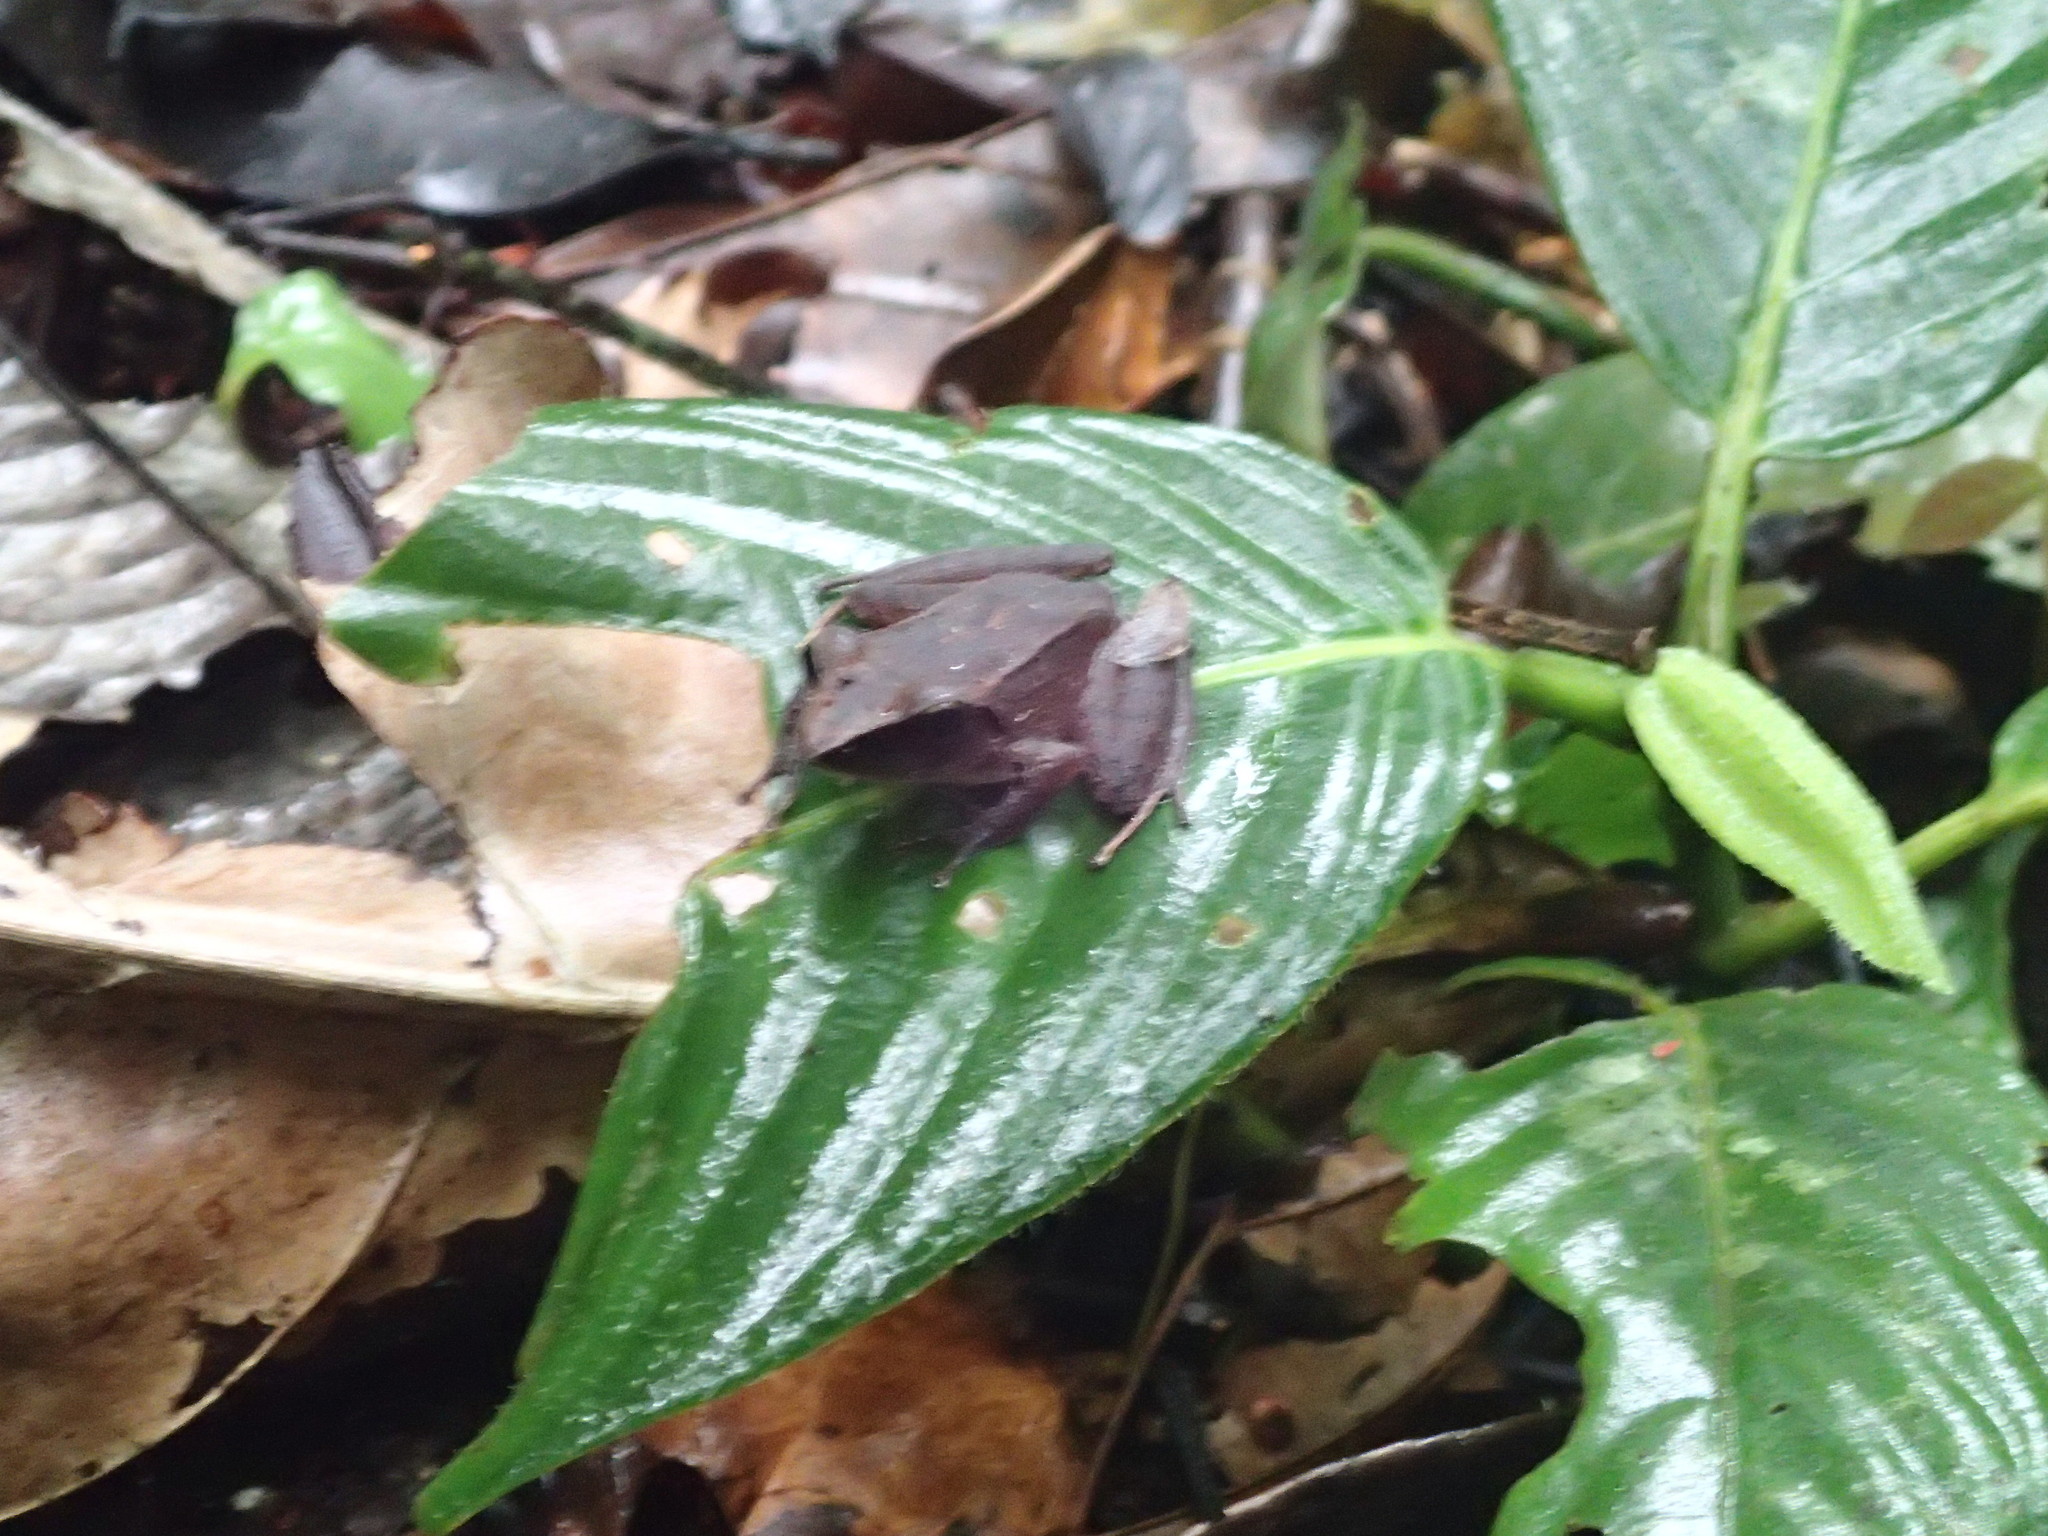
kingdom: Animalia
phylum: Chordata
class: Amphibia
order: Anura
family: Craugastoridae
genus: Pristimantis
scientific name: Pristimantis conspicillatus
